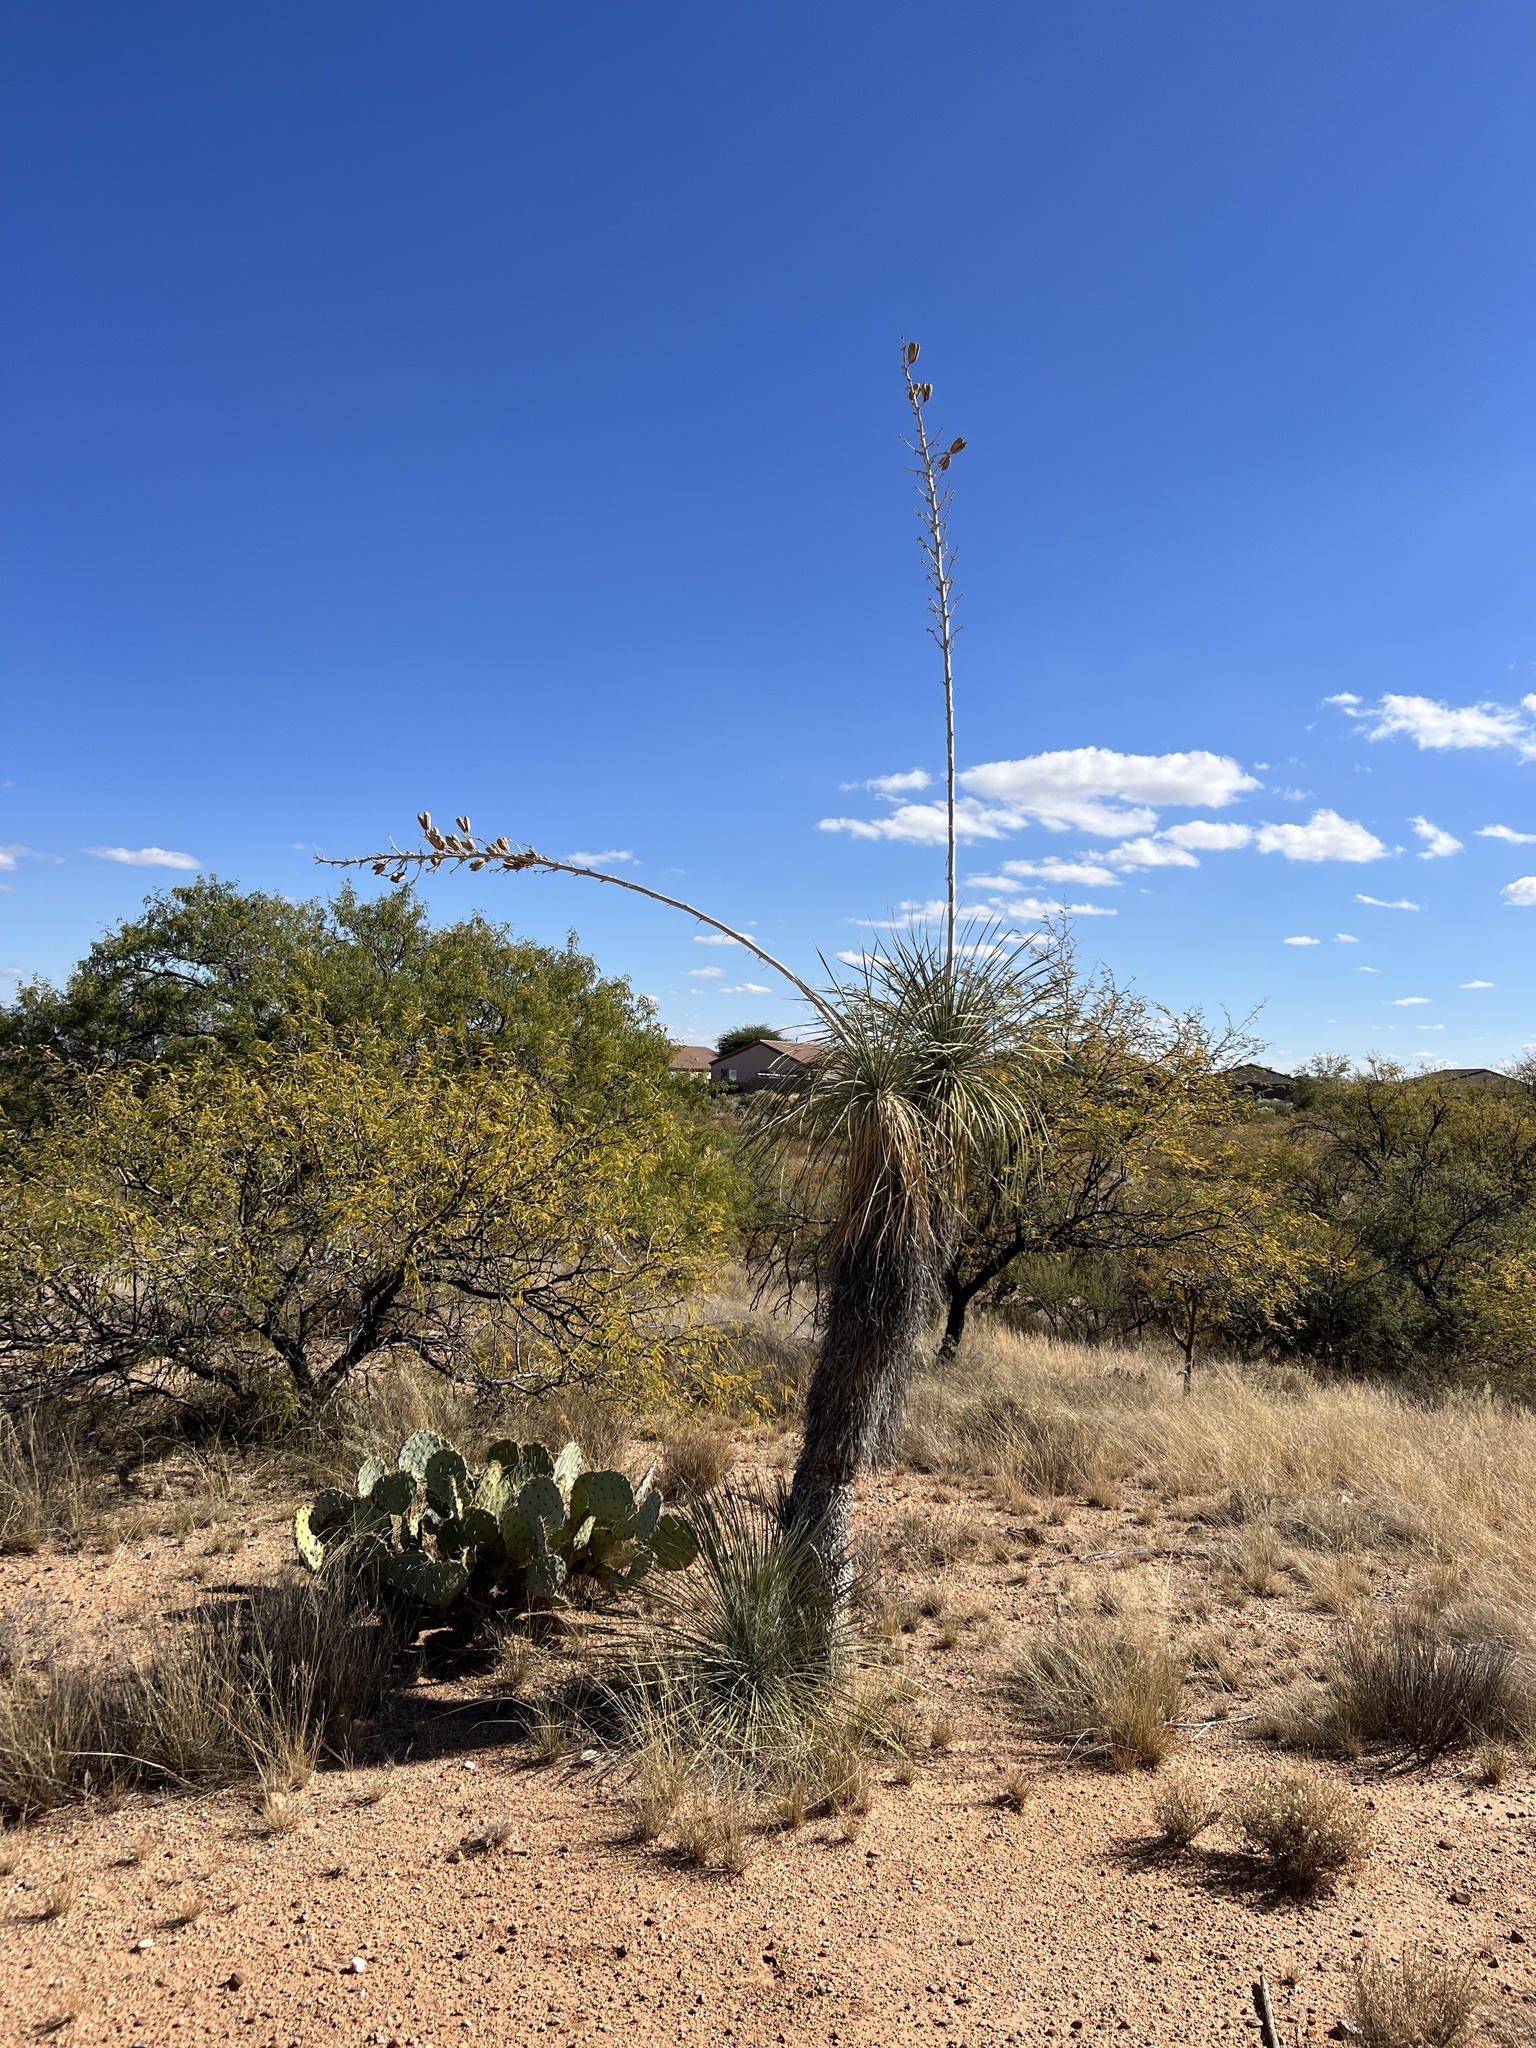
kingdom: Plantae
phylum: Tracheophyta
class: Liliopsida
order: Asparagales
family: Asparagaceae
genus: Yucca
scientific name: Yucca elata
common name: Palmella
